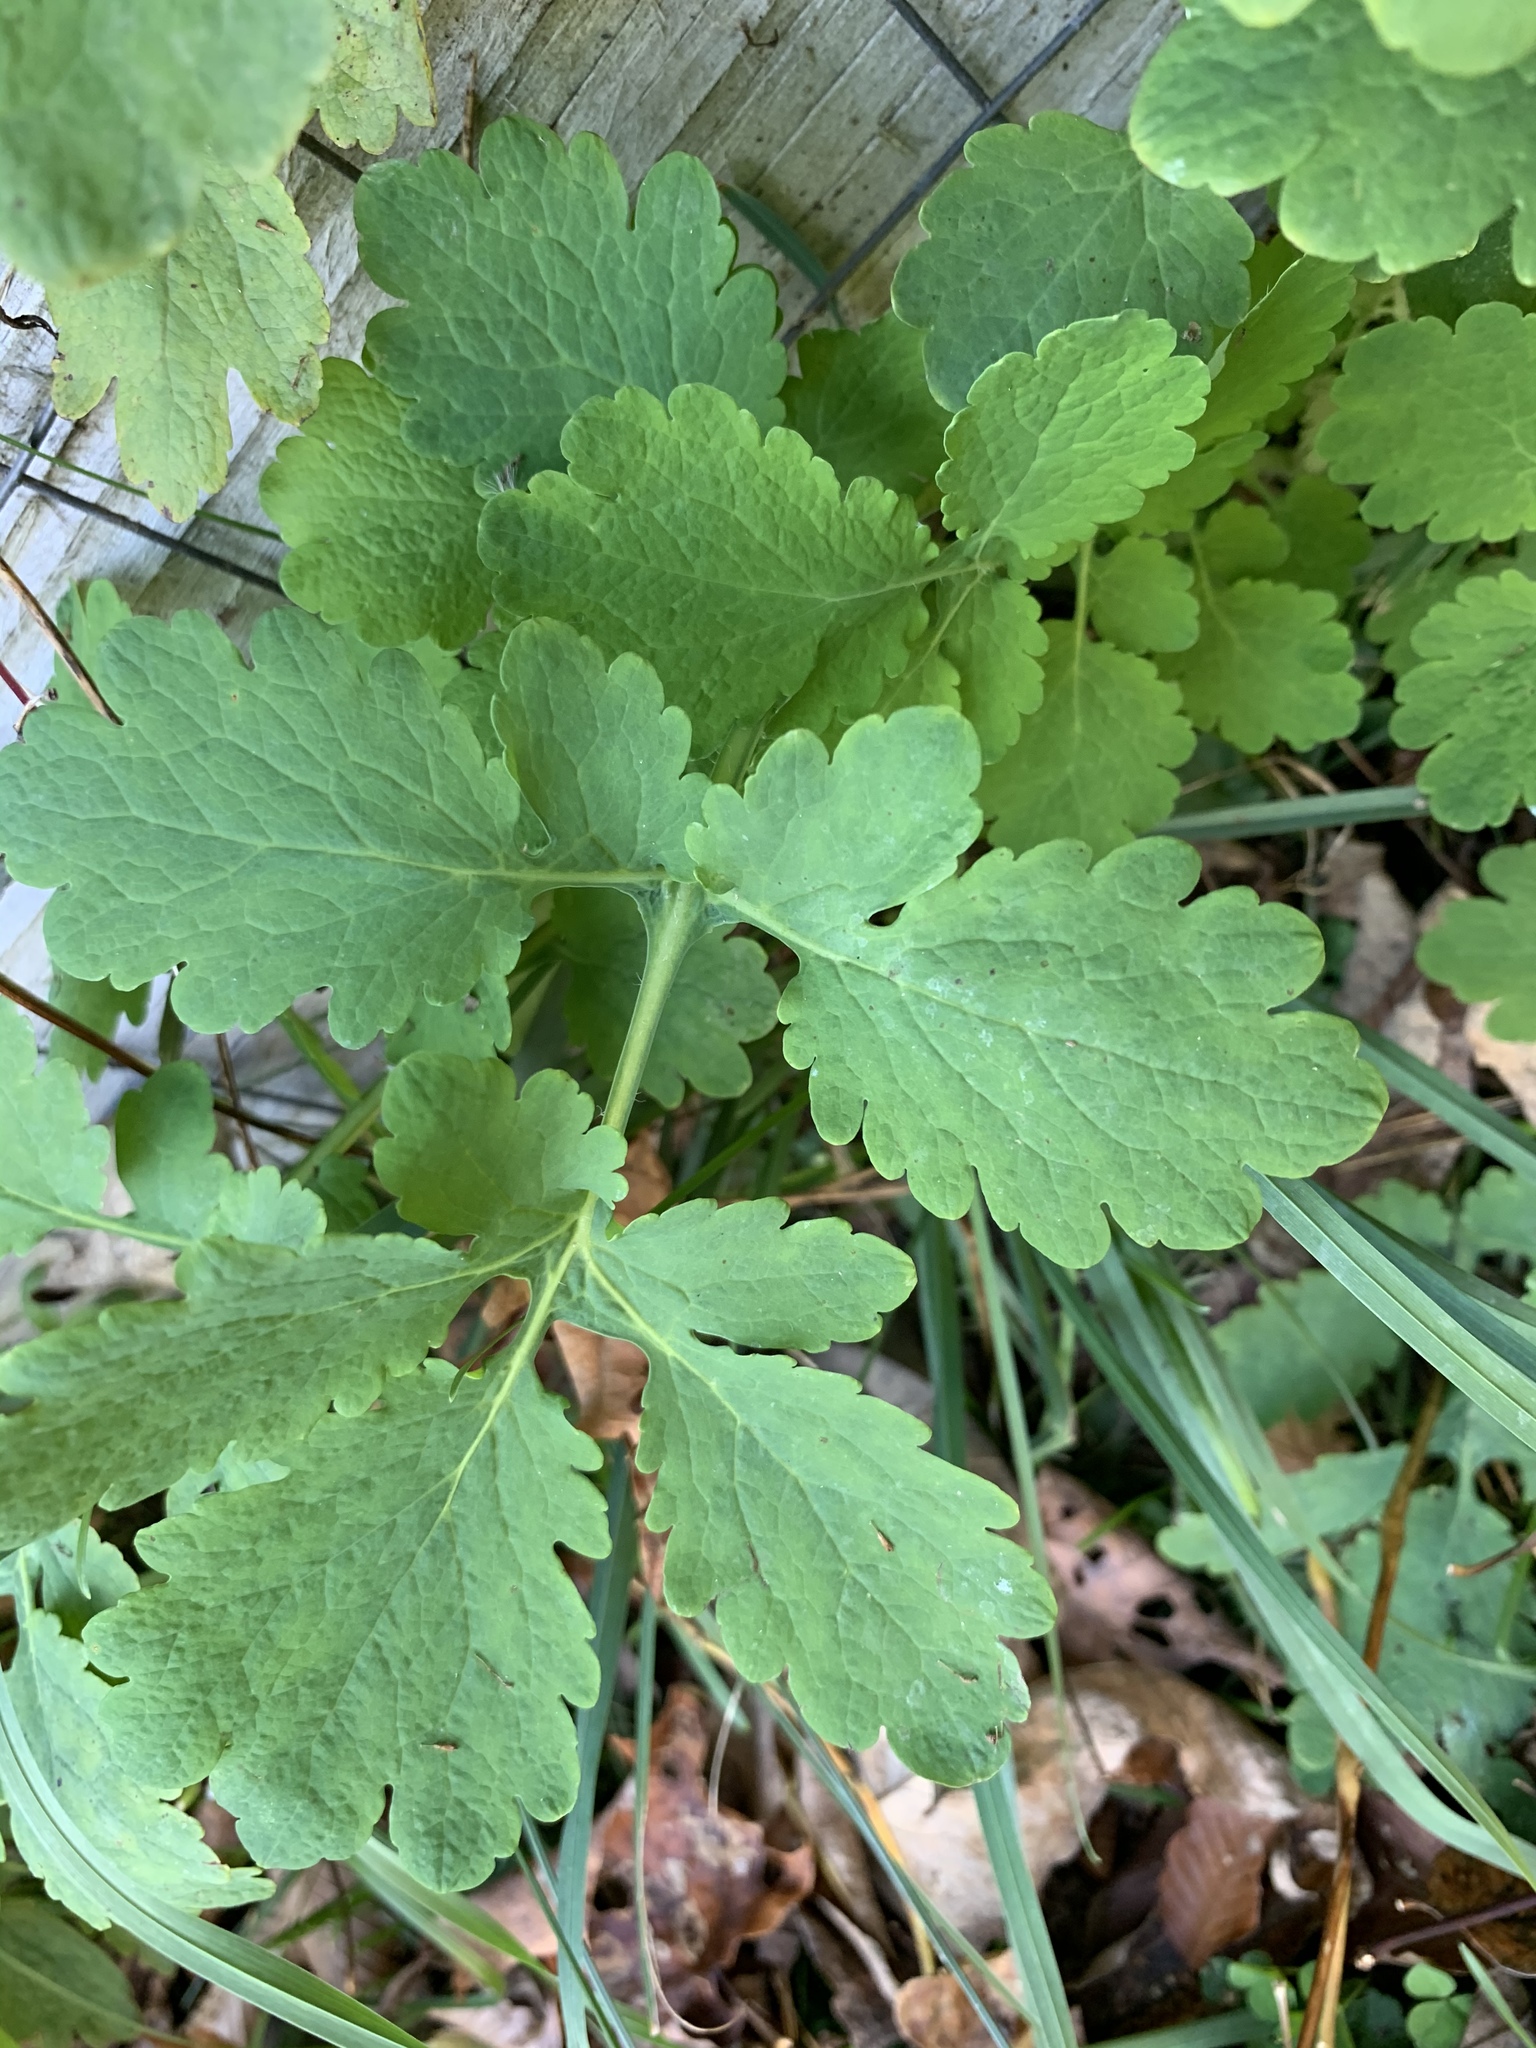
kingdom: Plantae
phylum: Tracheophyta
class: Magnoliopsida
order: Ranunculales
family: Papaveraceae
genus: Chelidonium
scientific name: Chelidonium majus
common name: Greater celandine
